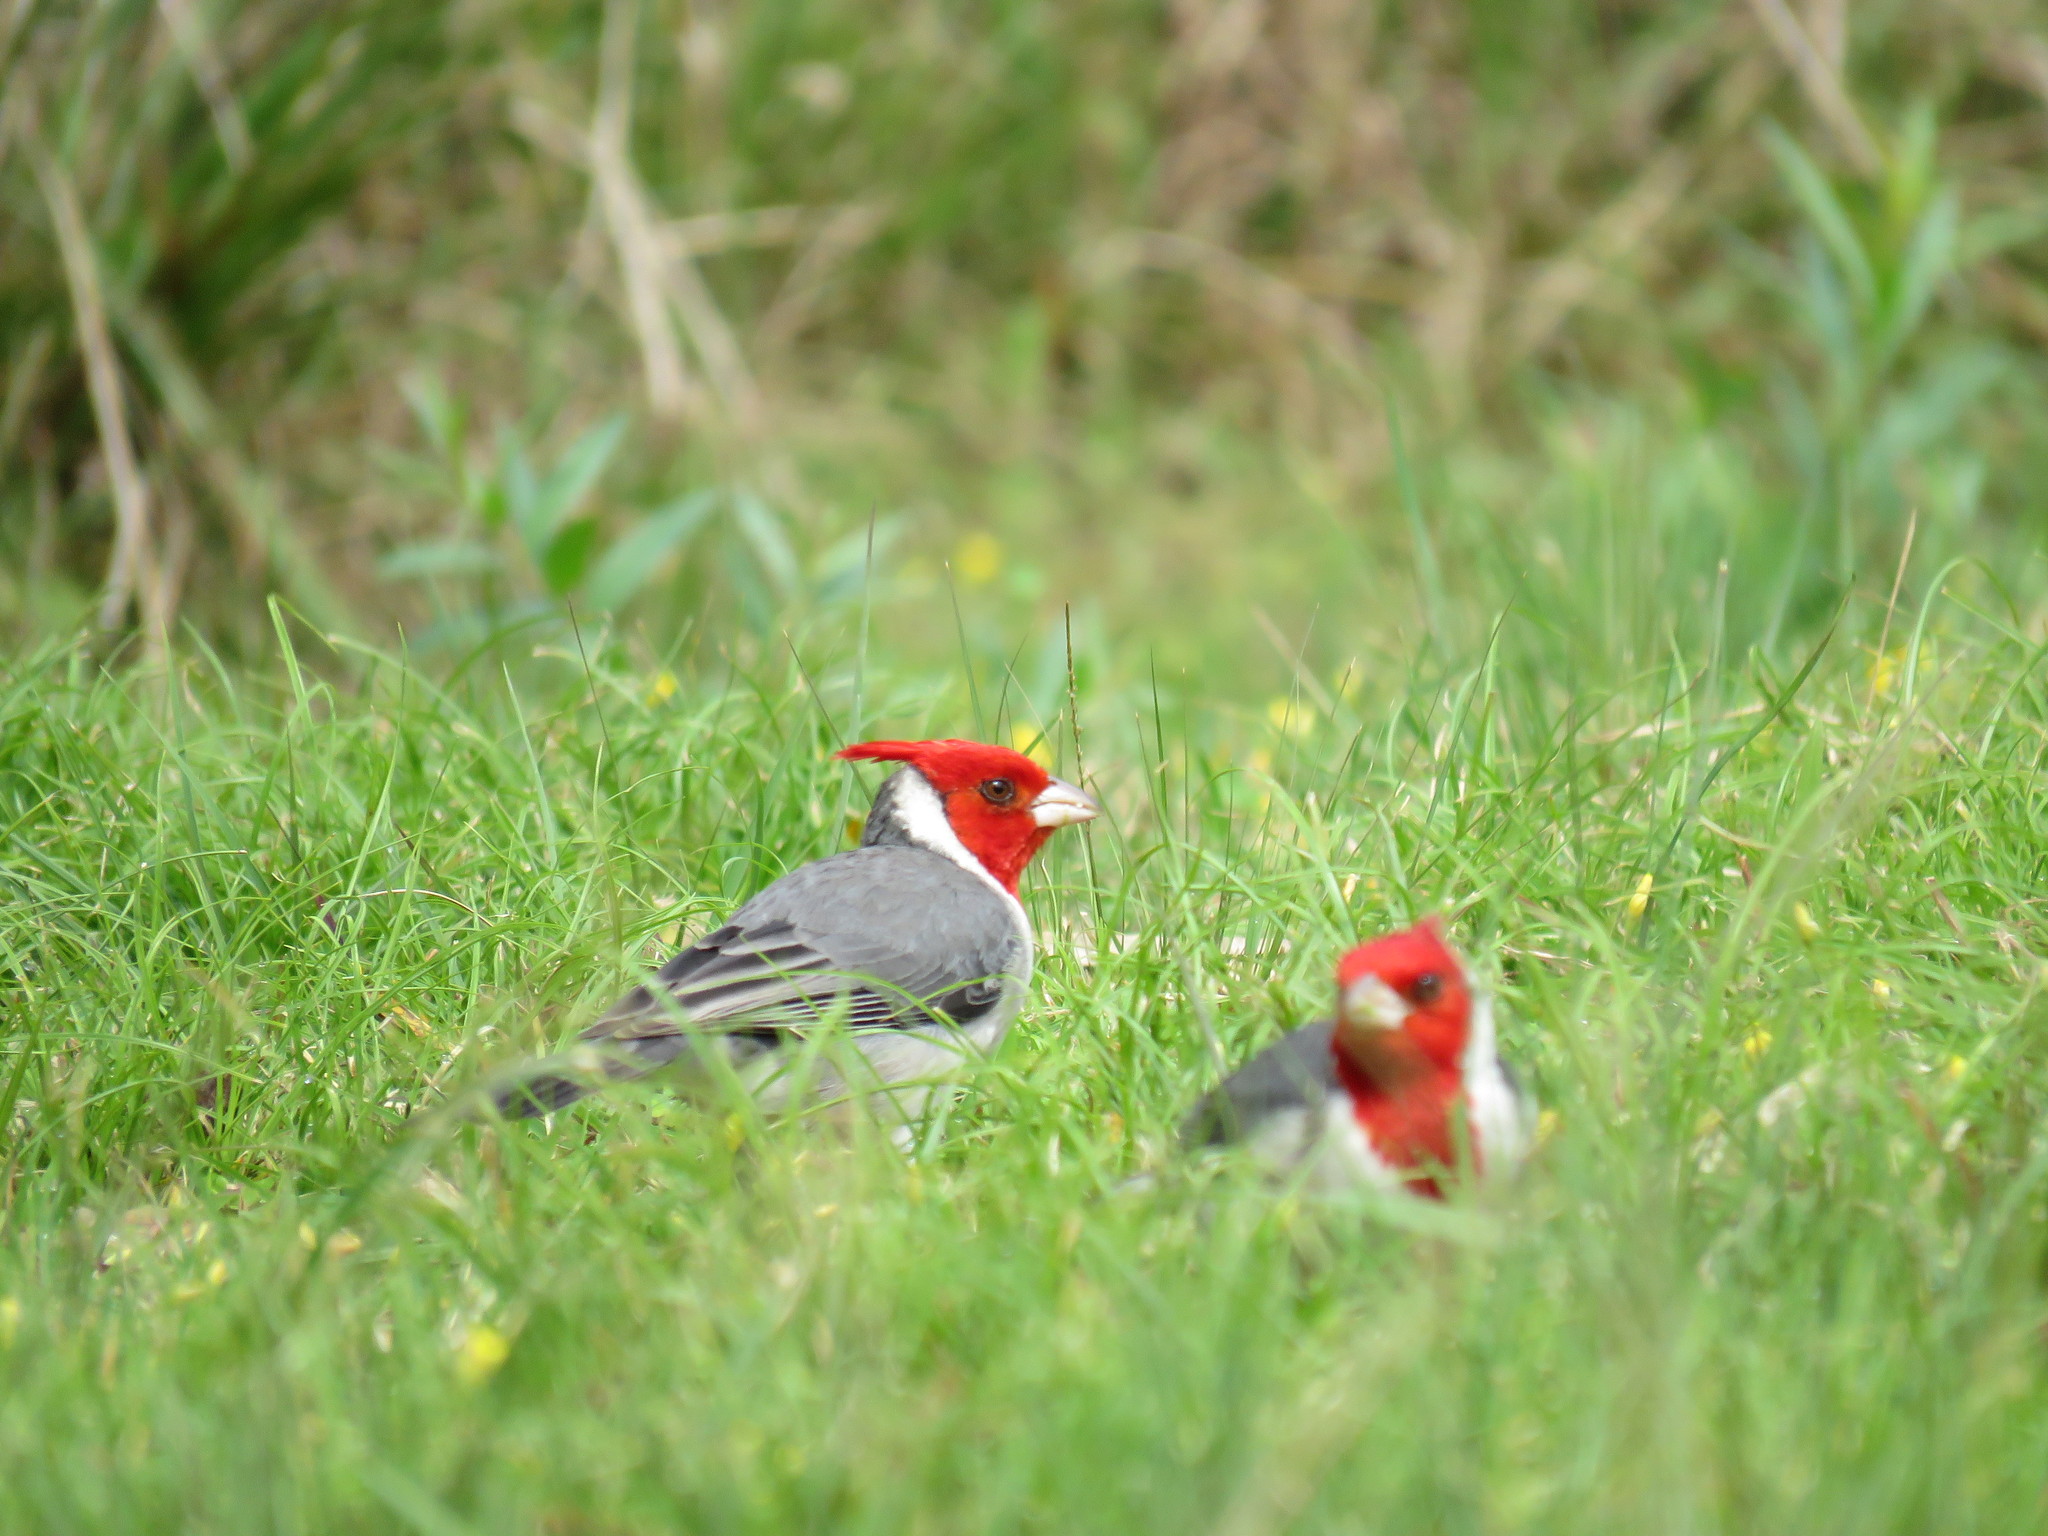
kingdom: Animalia
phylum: Chordata
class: Aves
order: Passeriformes
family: Thraupidae
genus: Paroaria
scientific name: Paroaria coronata
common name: Red-crested cardinal
